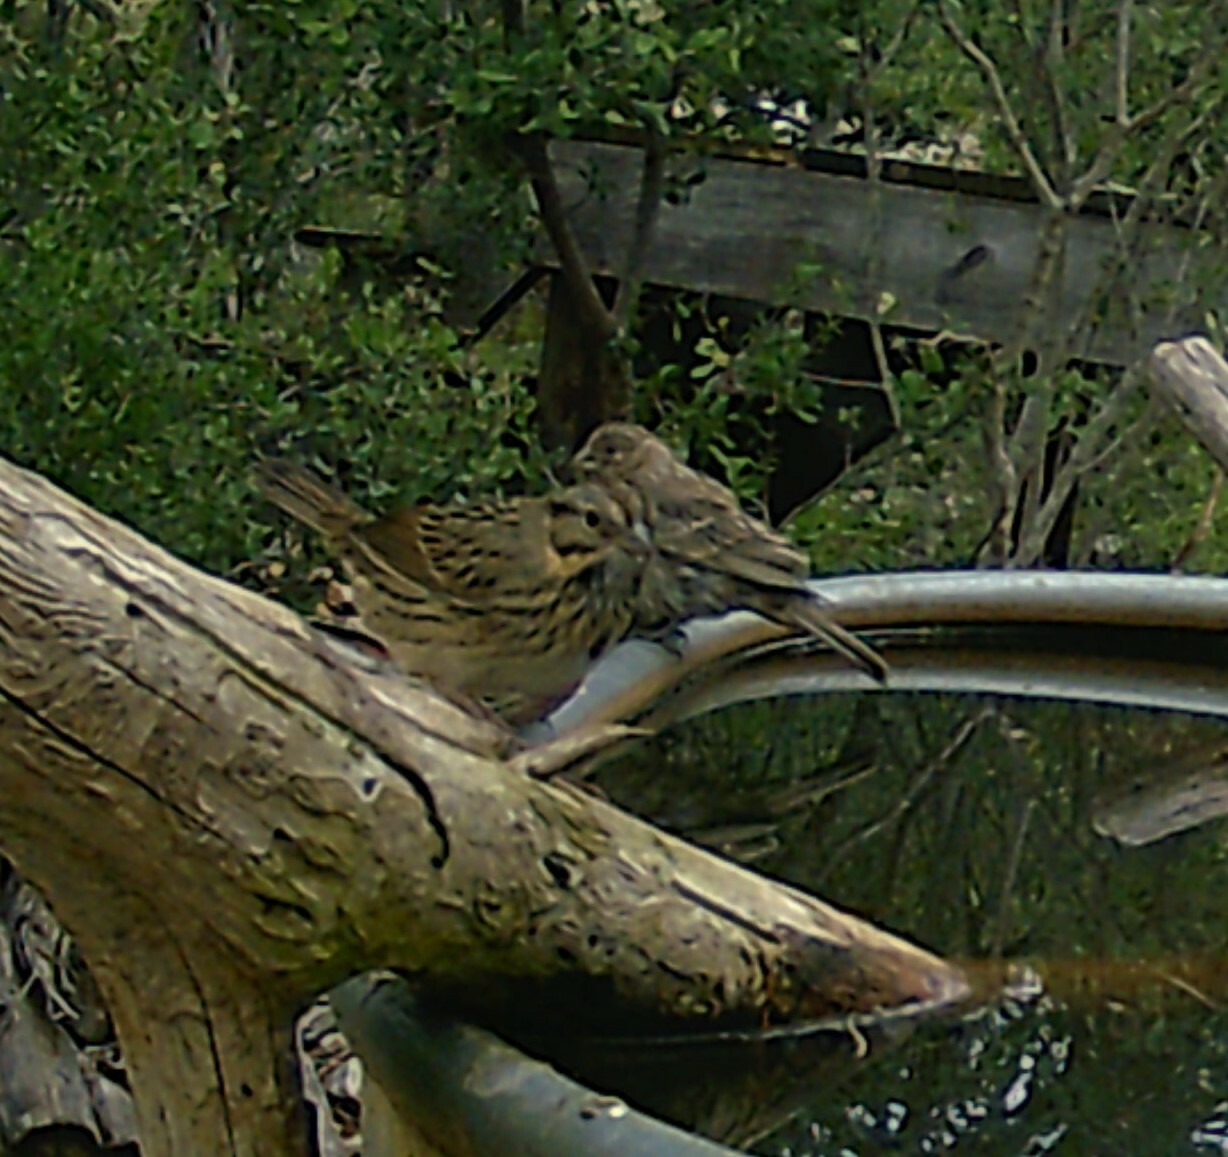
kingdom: Animalia
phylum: Chordata
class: Aves
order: Passeriformes
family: Passerellidae
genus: Melospiza
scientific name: Melospiza lincolnii
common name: Lincoln's sparrow
